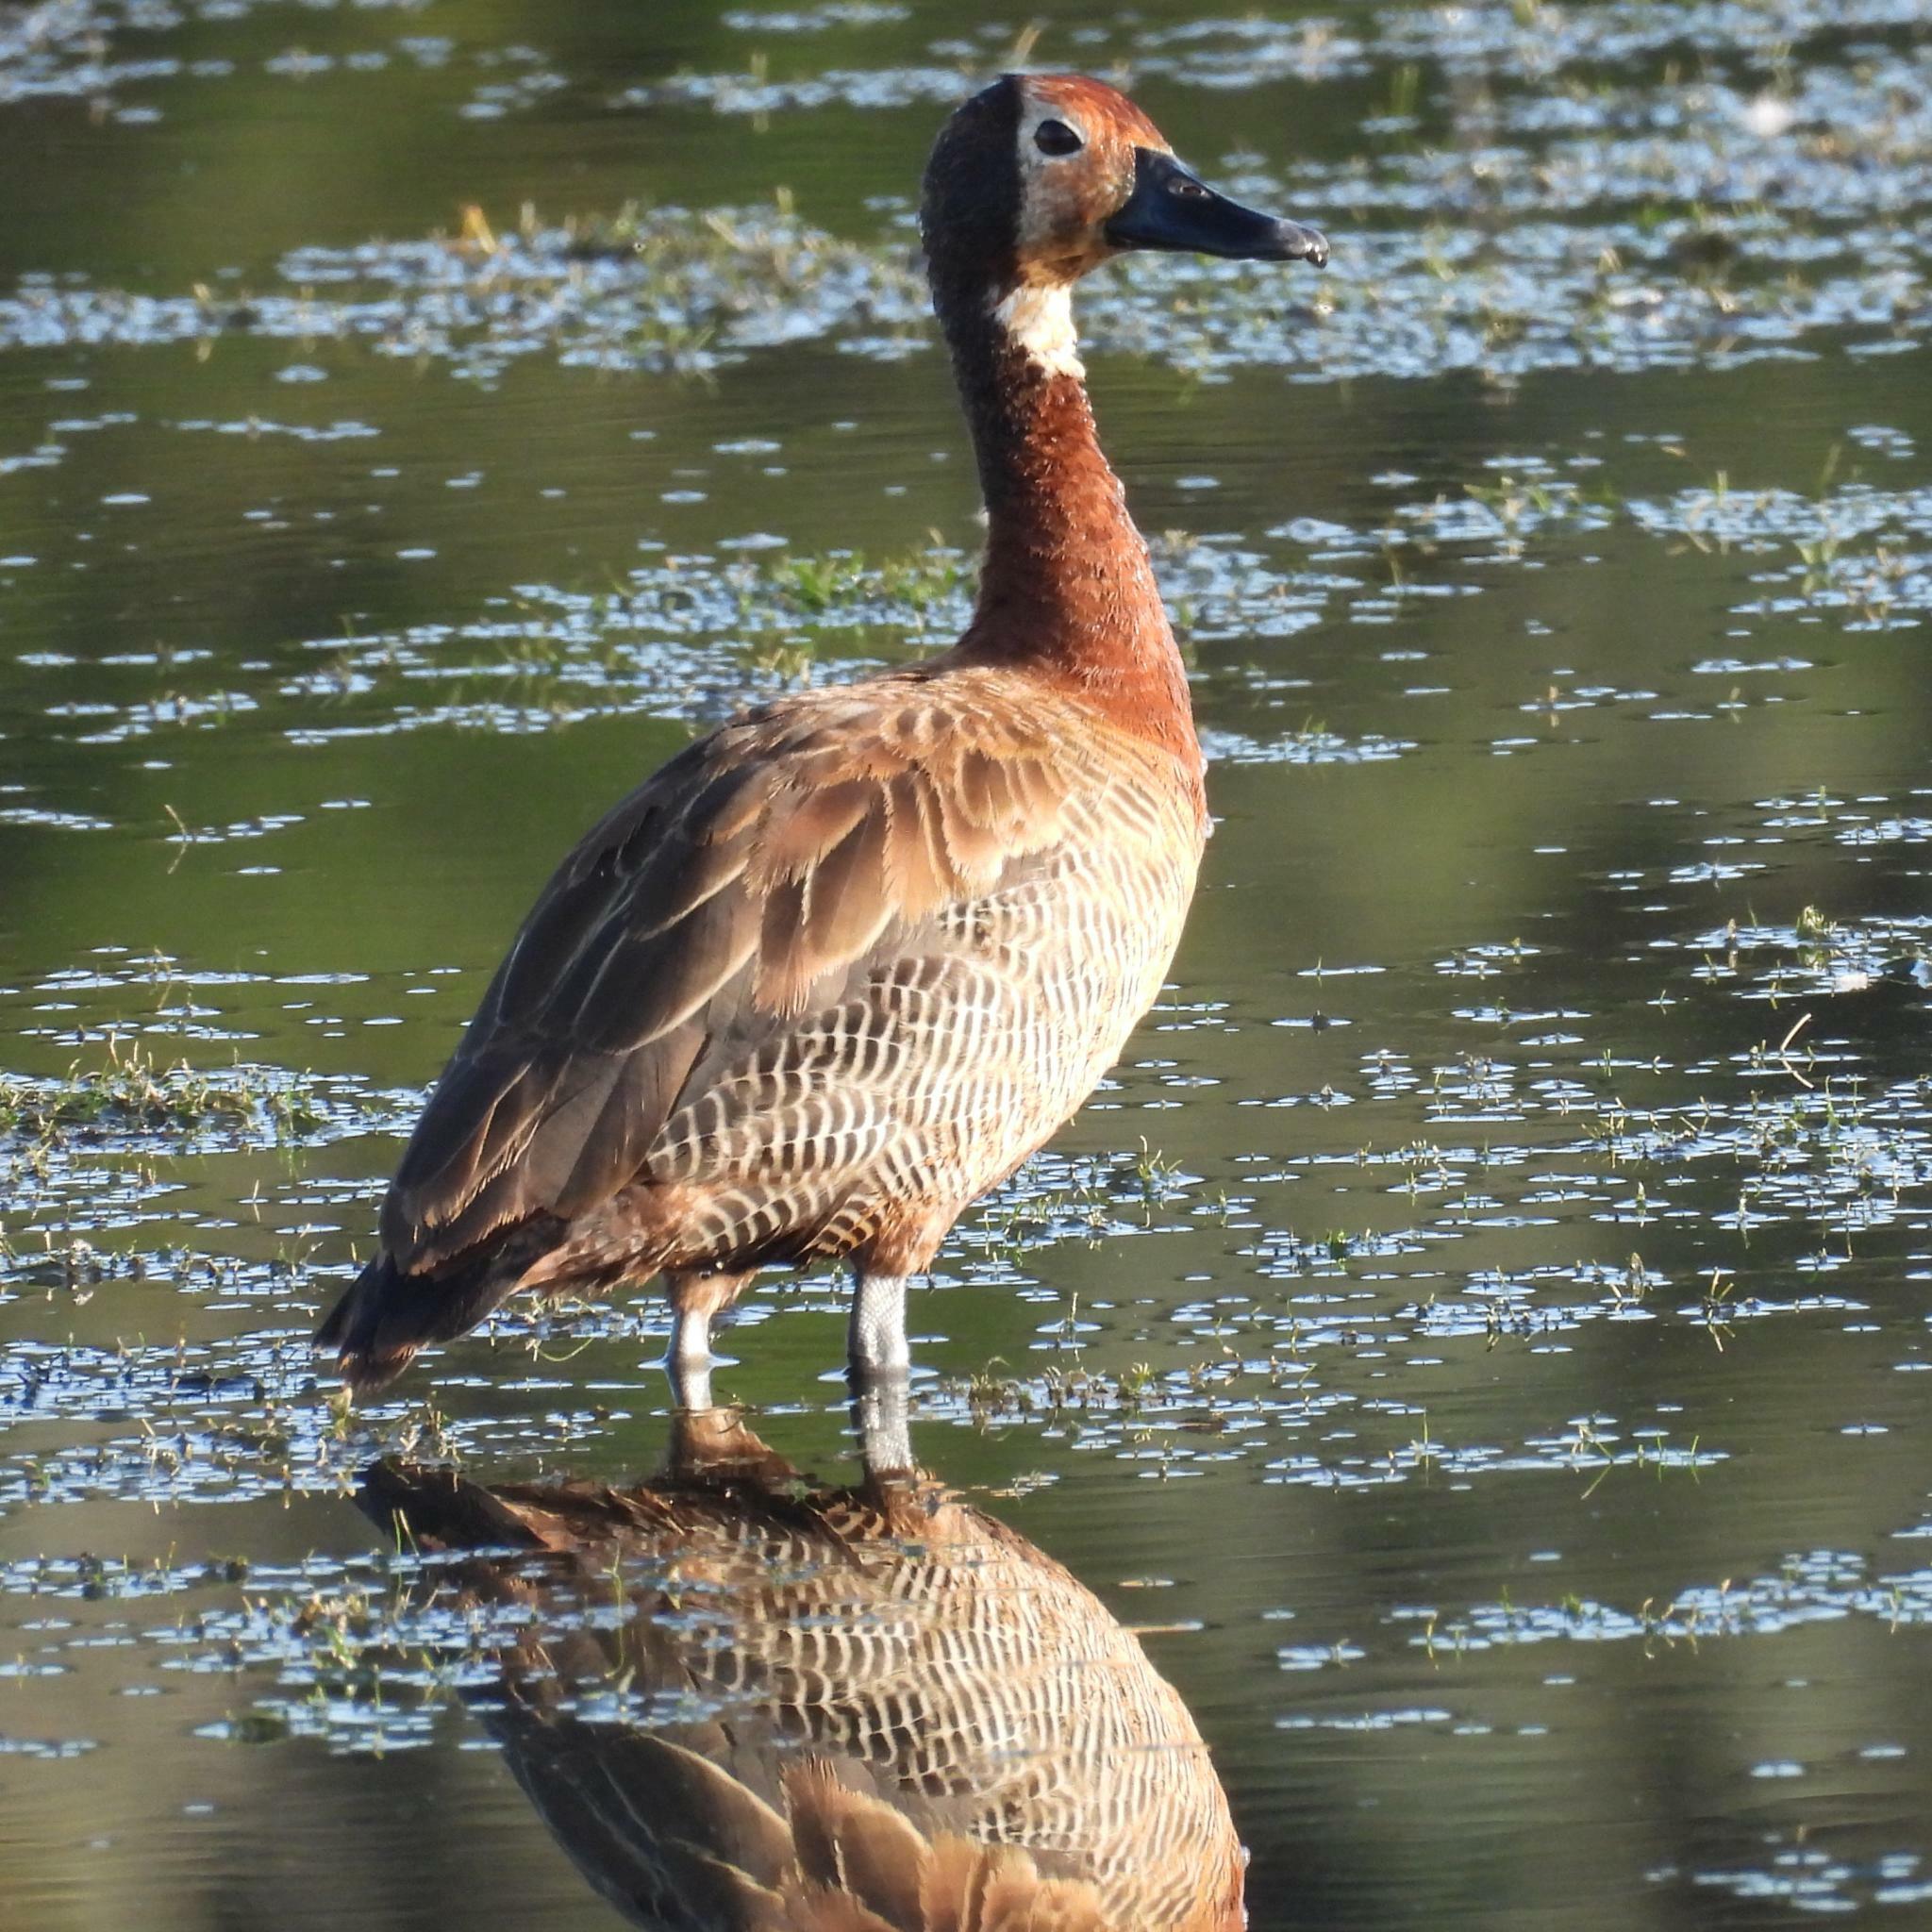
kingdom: Animalia
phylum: Chordata
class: Aves
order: Anseriformes
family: Anatidae
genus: Dendrocygna
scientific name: Dendrocygna viduata
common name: White-faced whistling duck
